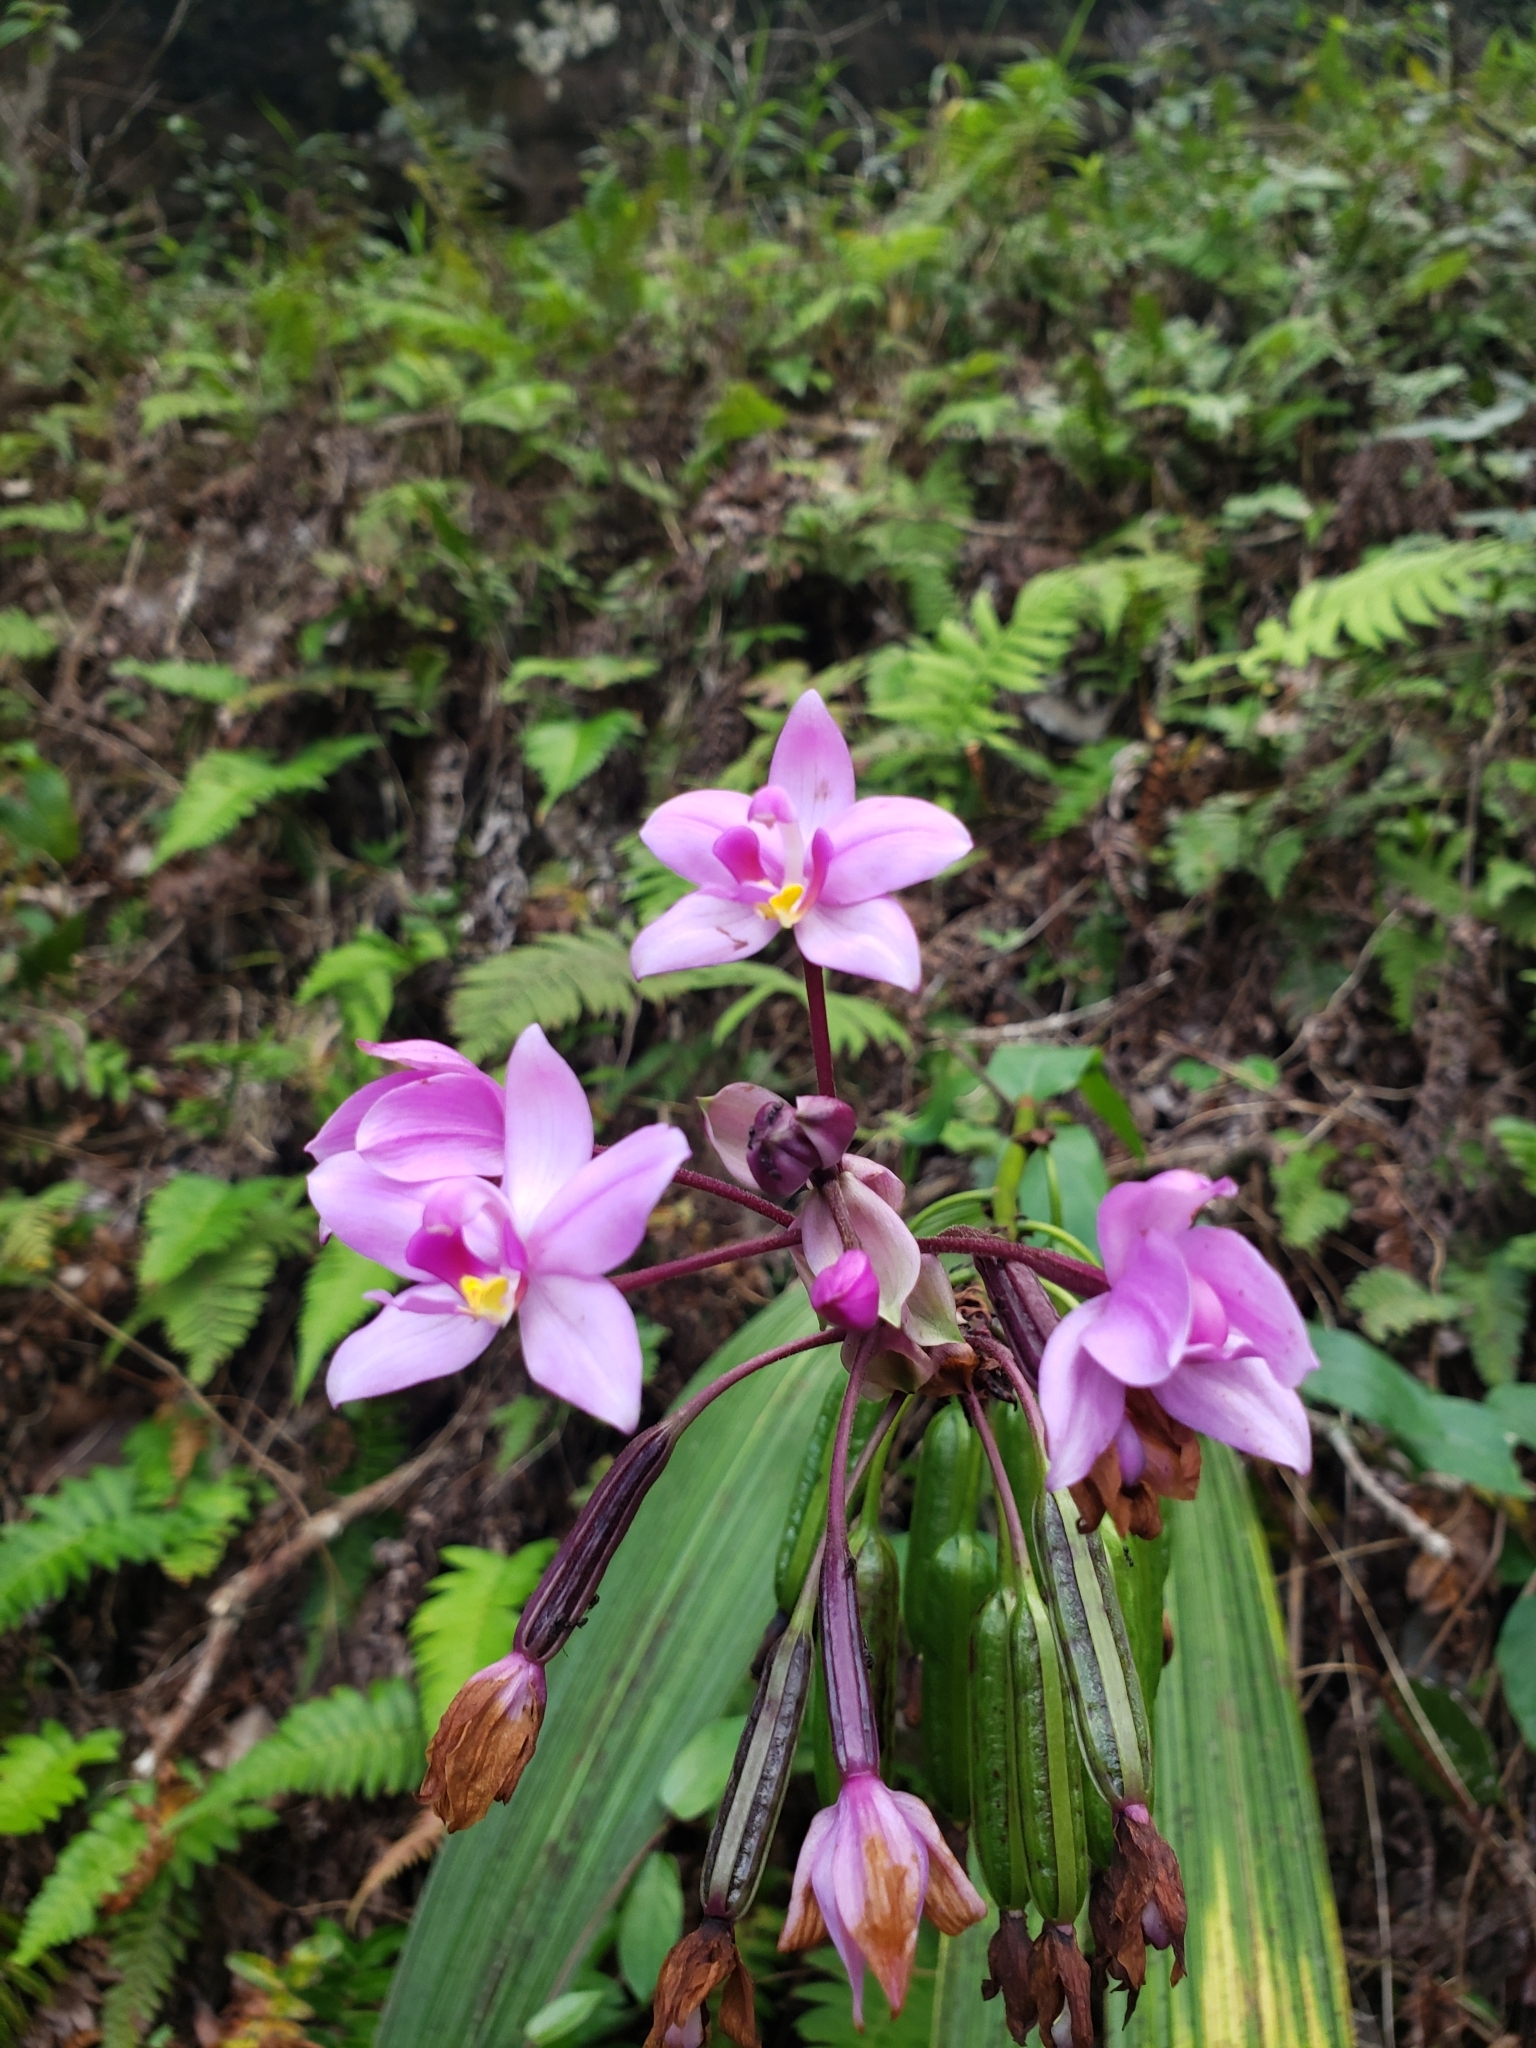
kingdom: Plantae
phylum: Tracheophyta
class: Liliopsida
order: Asparagales
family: Orchidaceae
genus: Spathoglottis
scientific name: Spathoglottis plicata
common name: Philippine ground orchid
